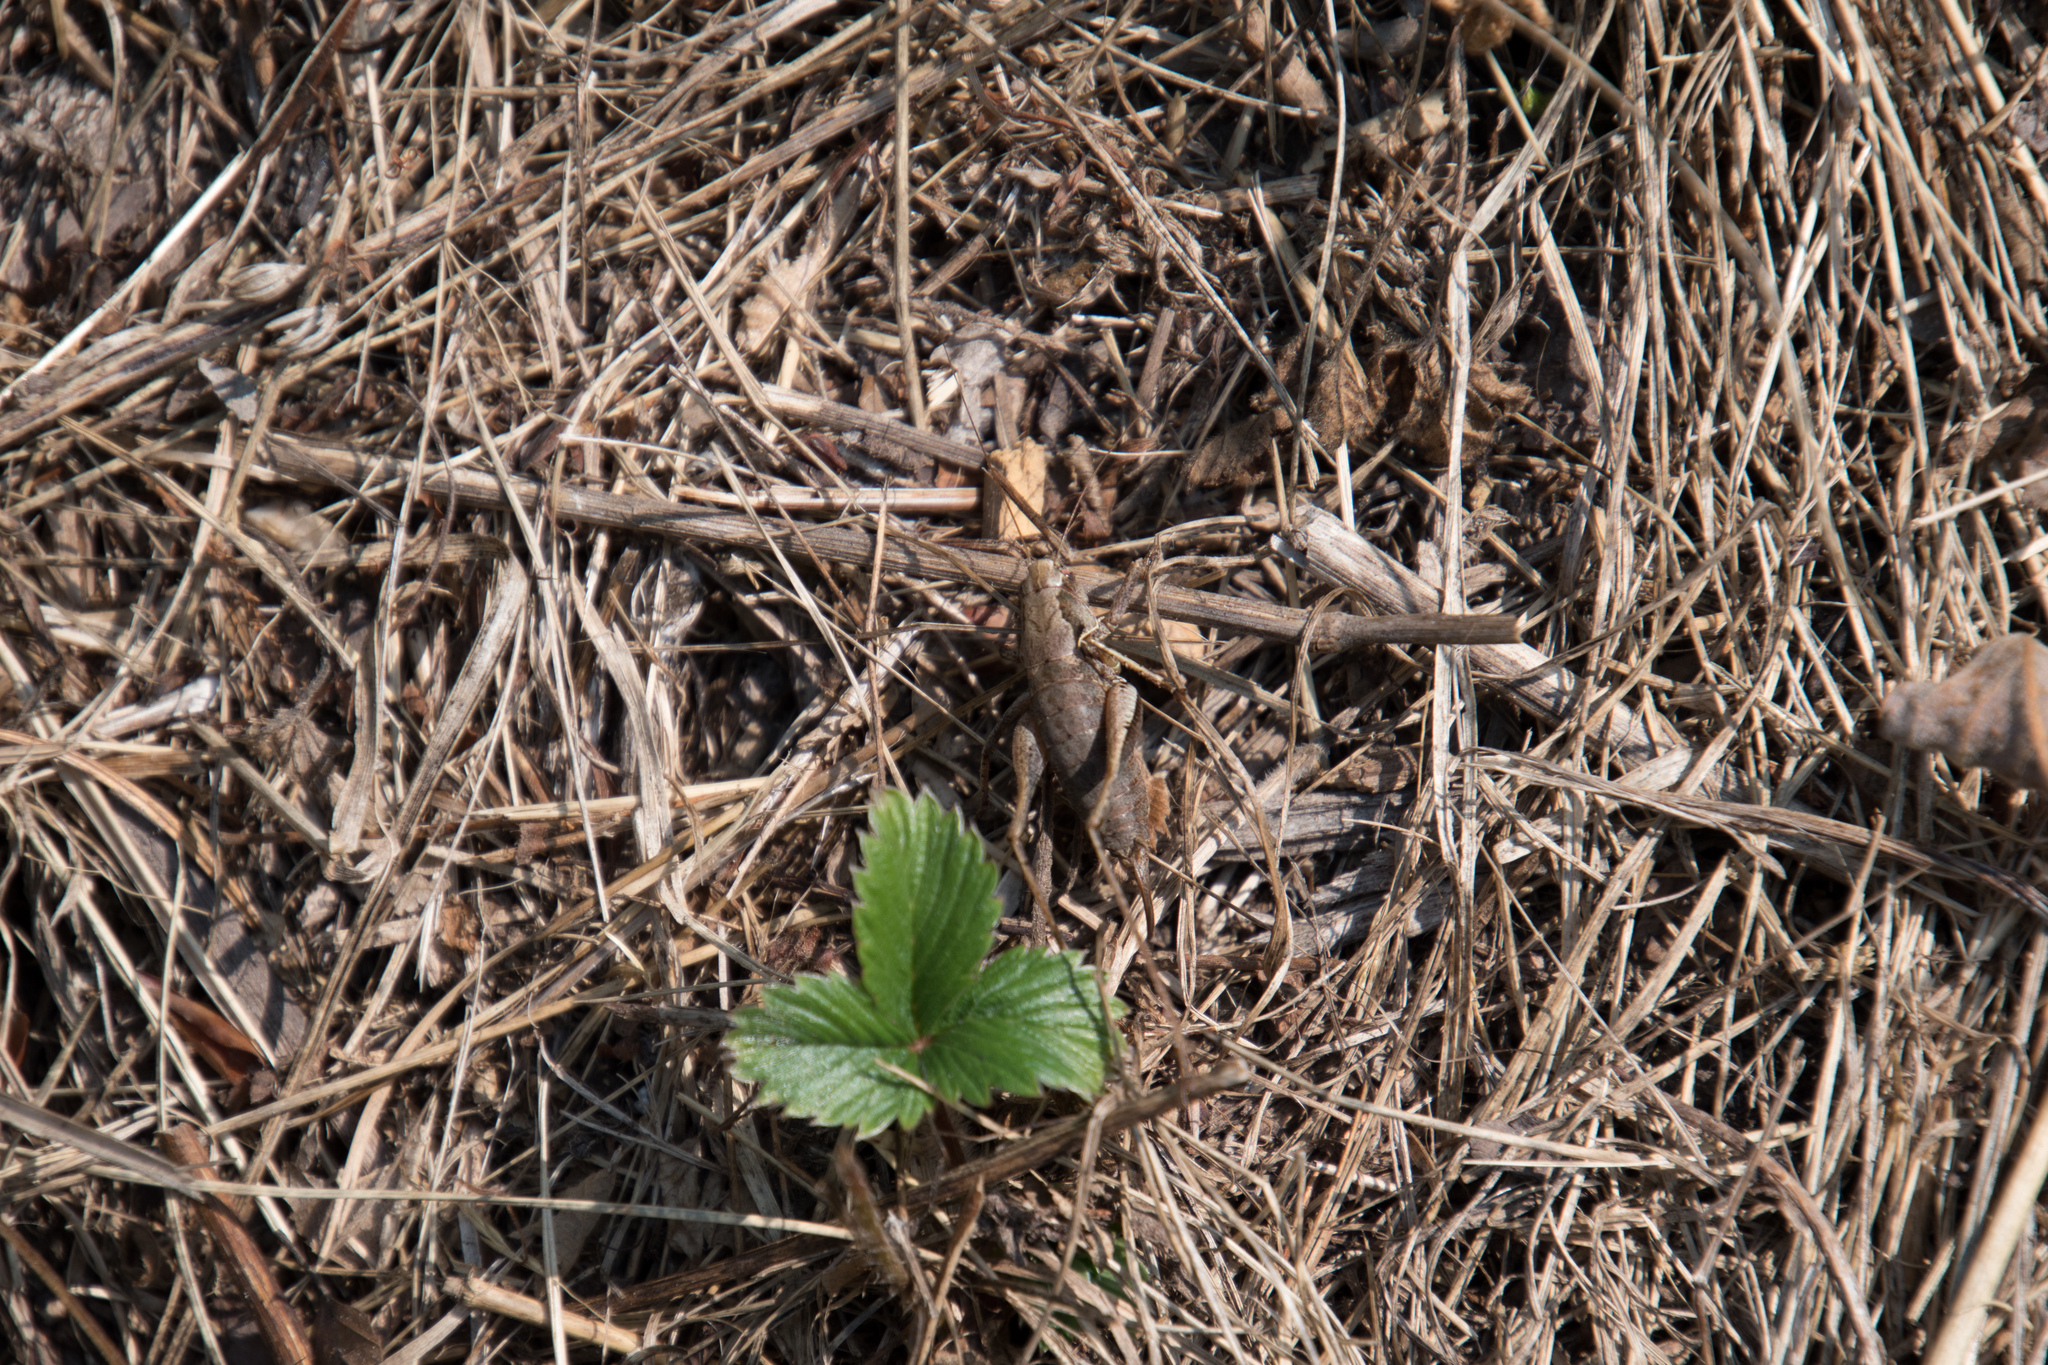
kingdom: Animalia
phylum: Arthropoda
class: Insecta
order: Orthoptera
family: Tettigoniidae
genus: Pholidoptera
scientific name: Pholidoptera griseoaptera
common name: Dark bush-cricket
